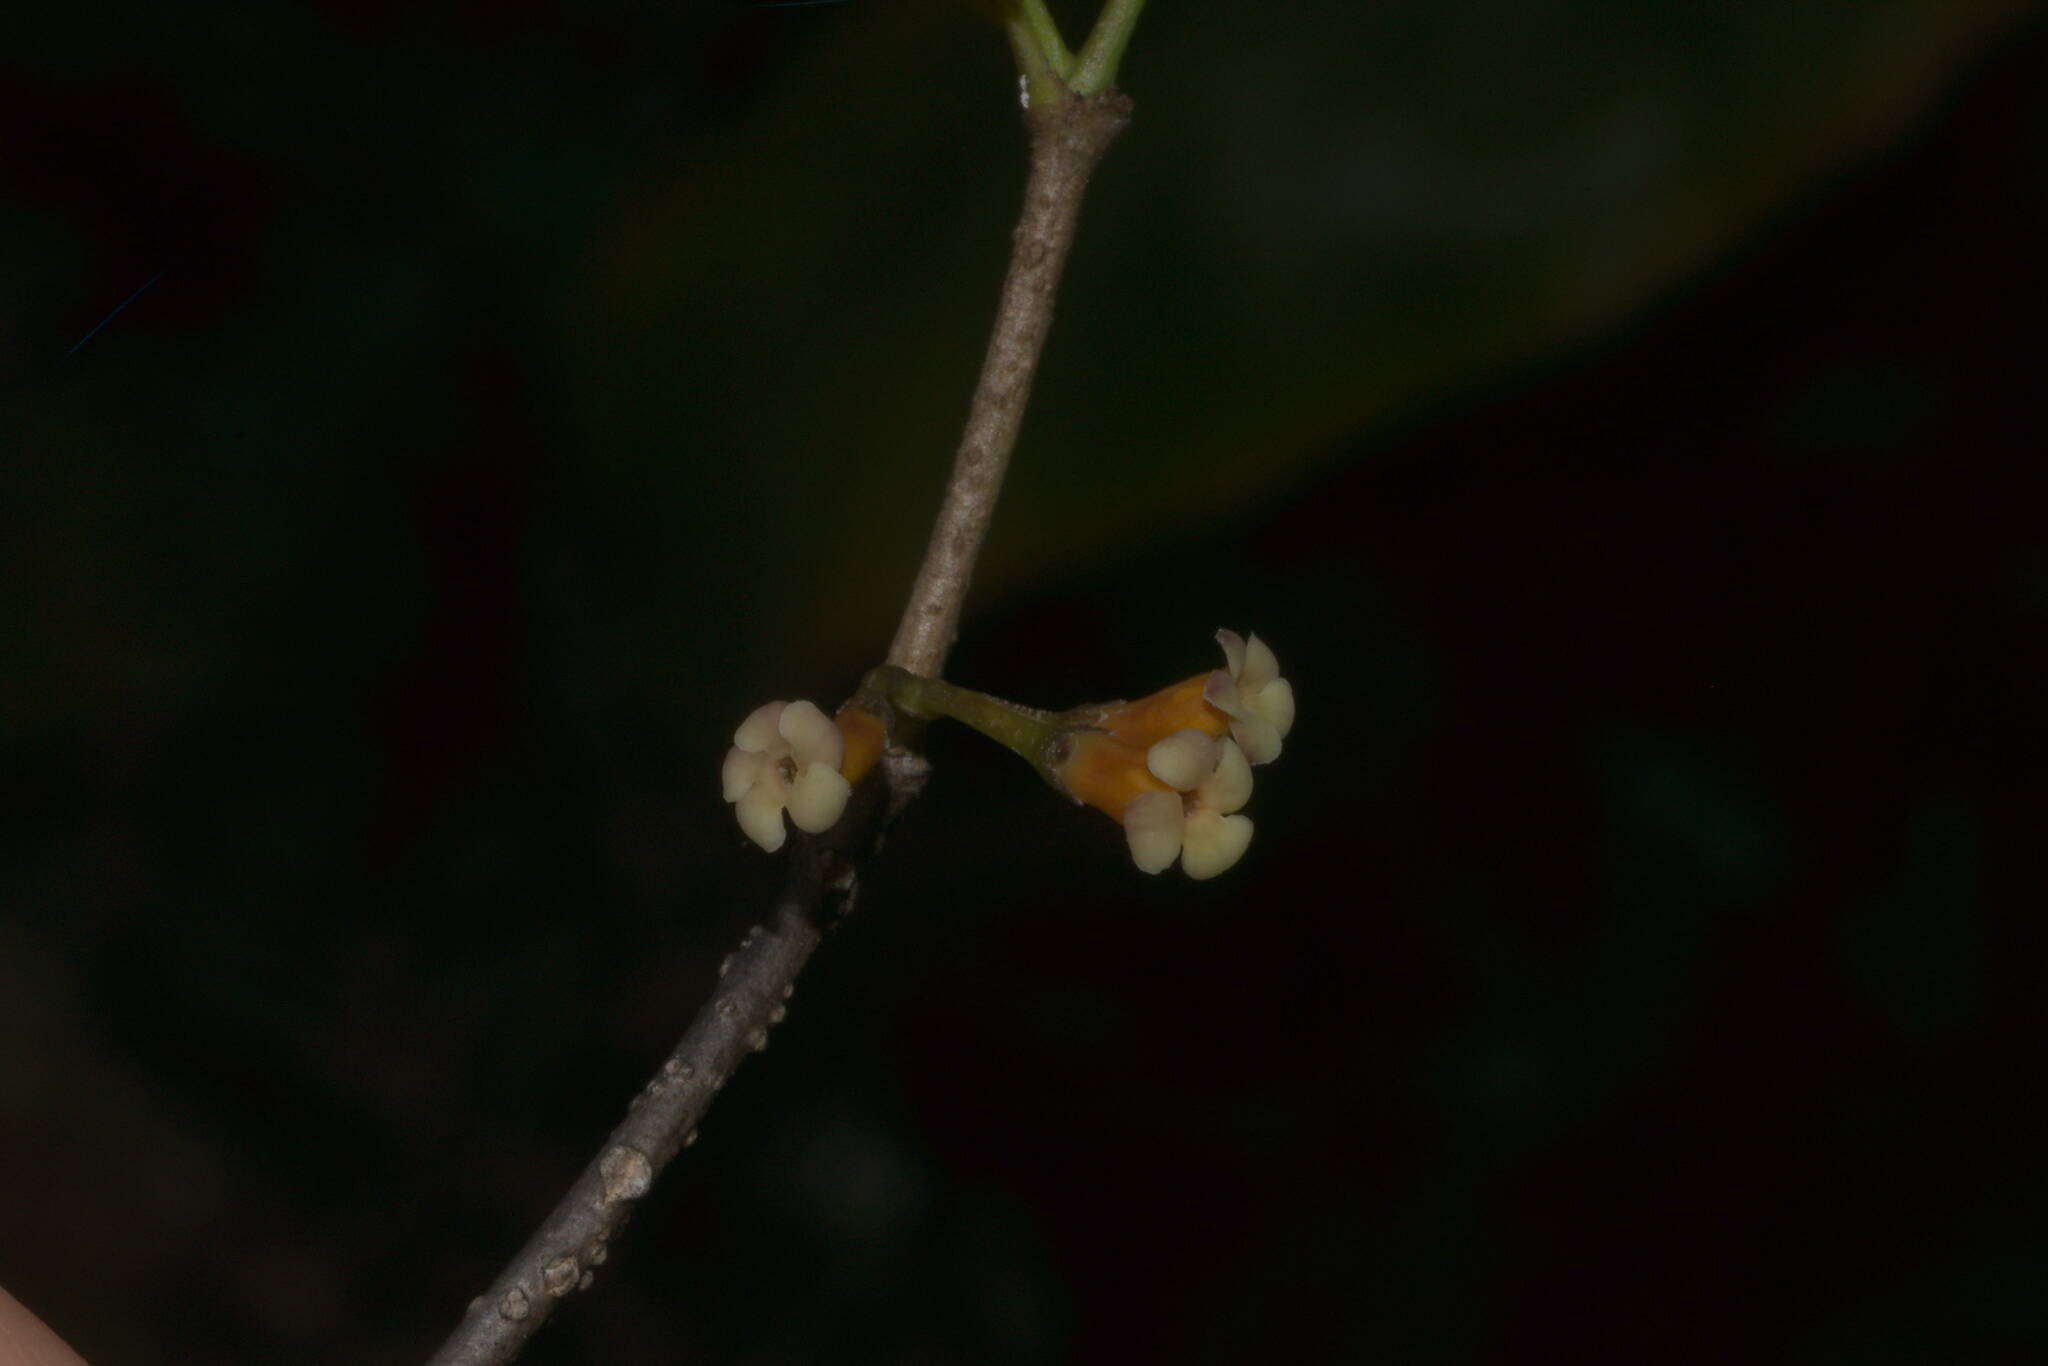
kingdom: Plantae
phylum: Tracheophyta
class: Magnoliopsida
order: Gentianales
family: Apocynaceae
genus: Alyxia
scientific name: Alyxia stellata
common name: Maile
